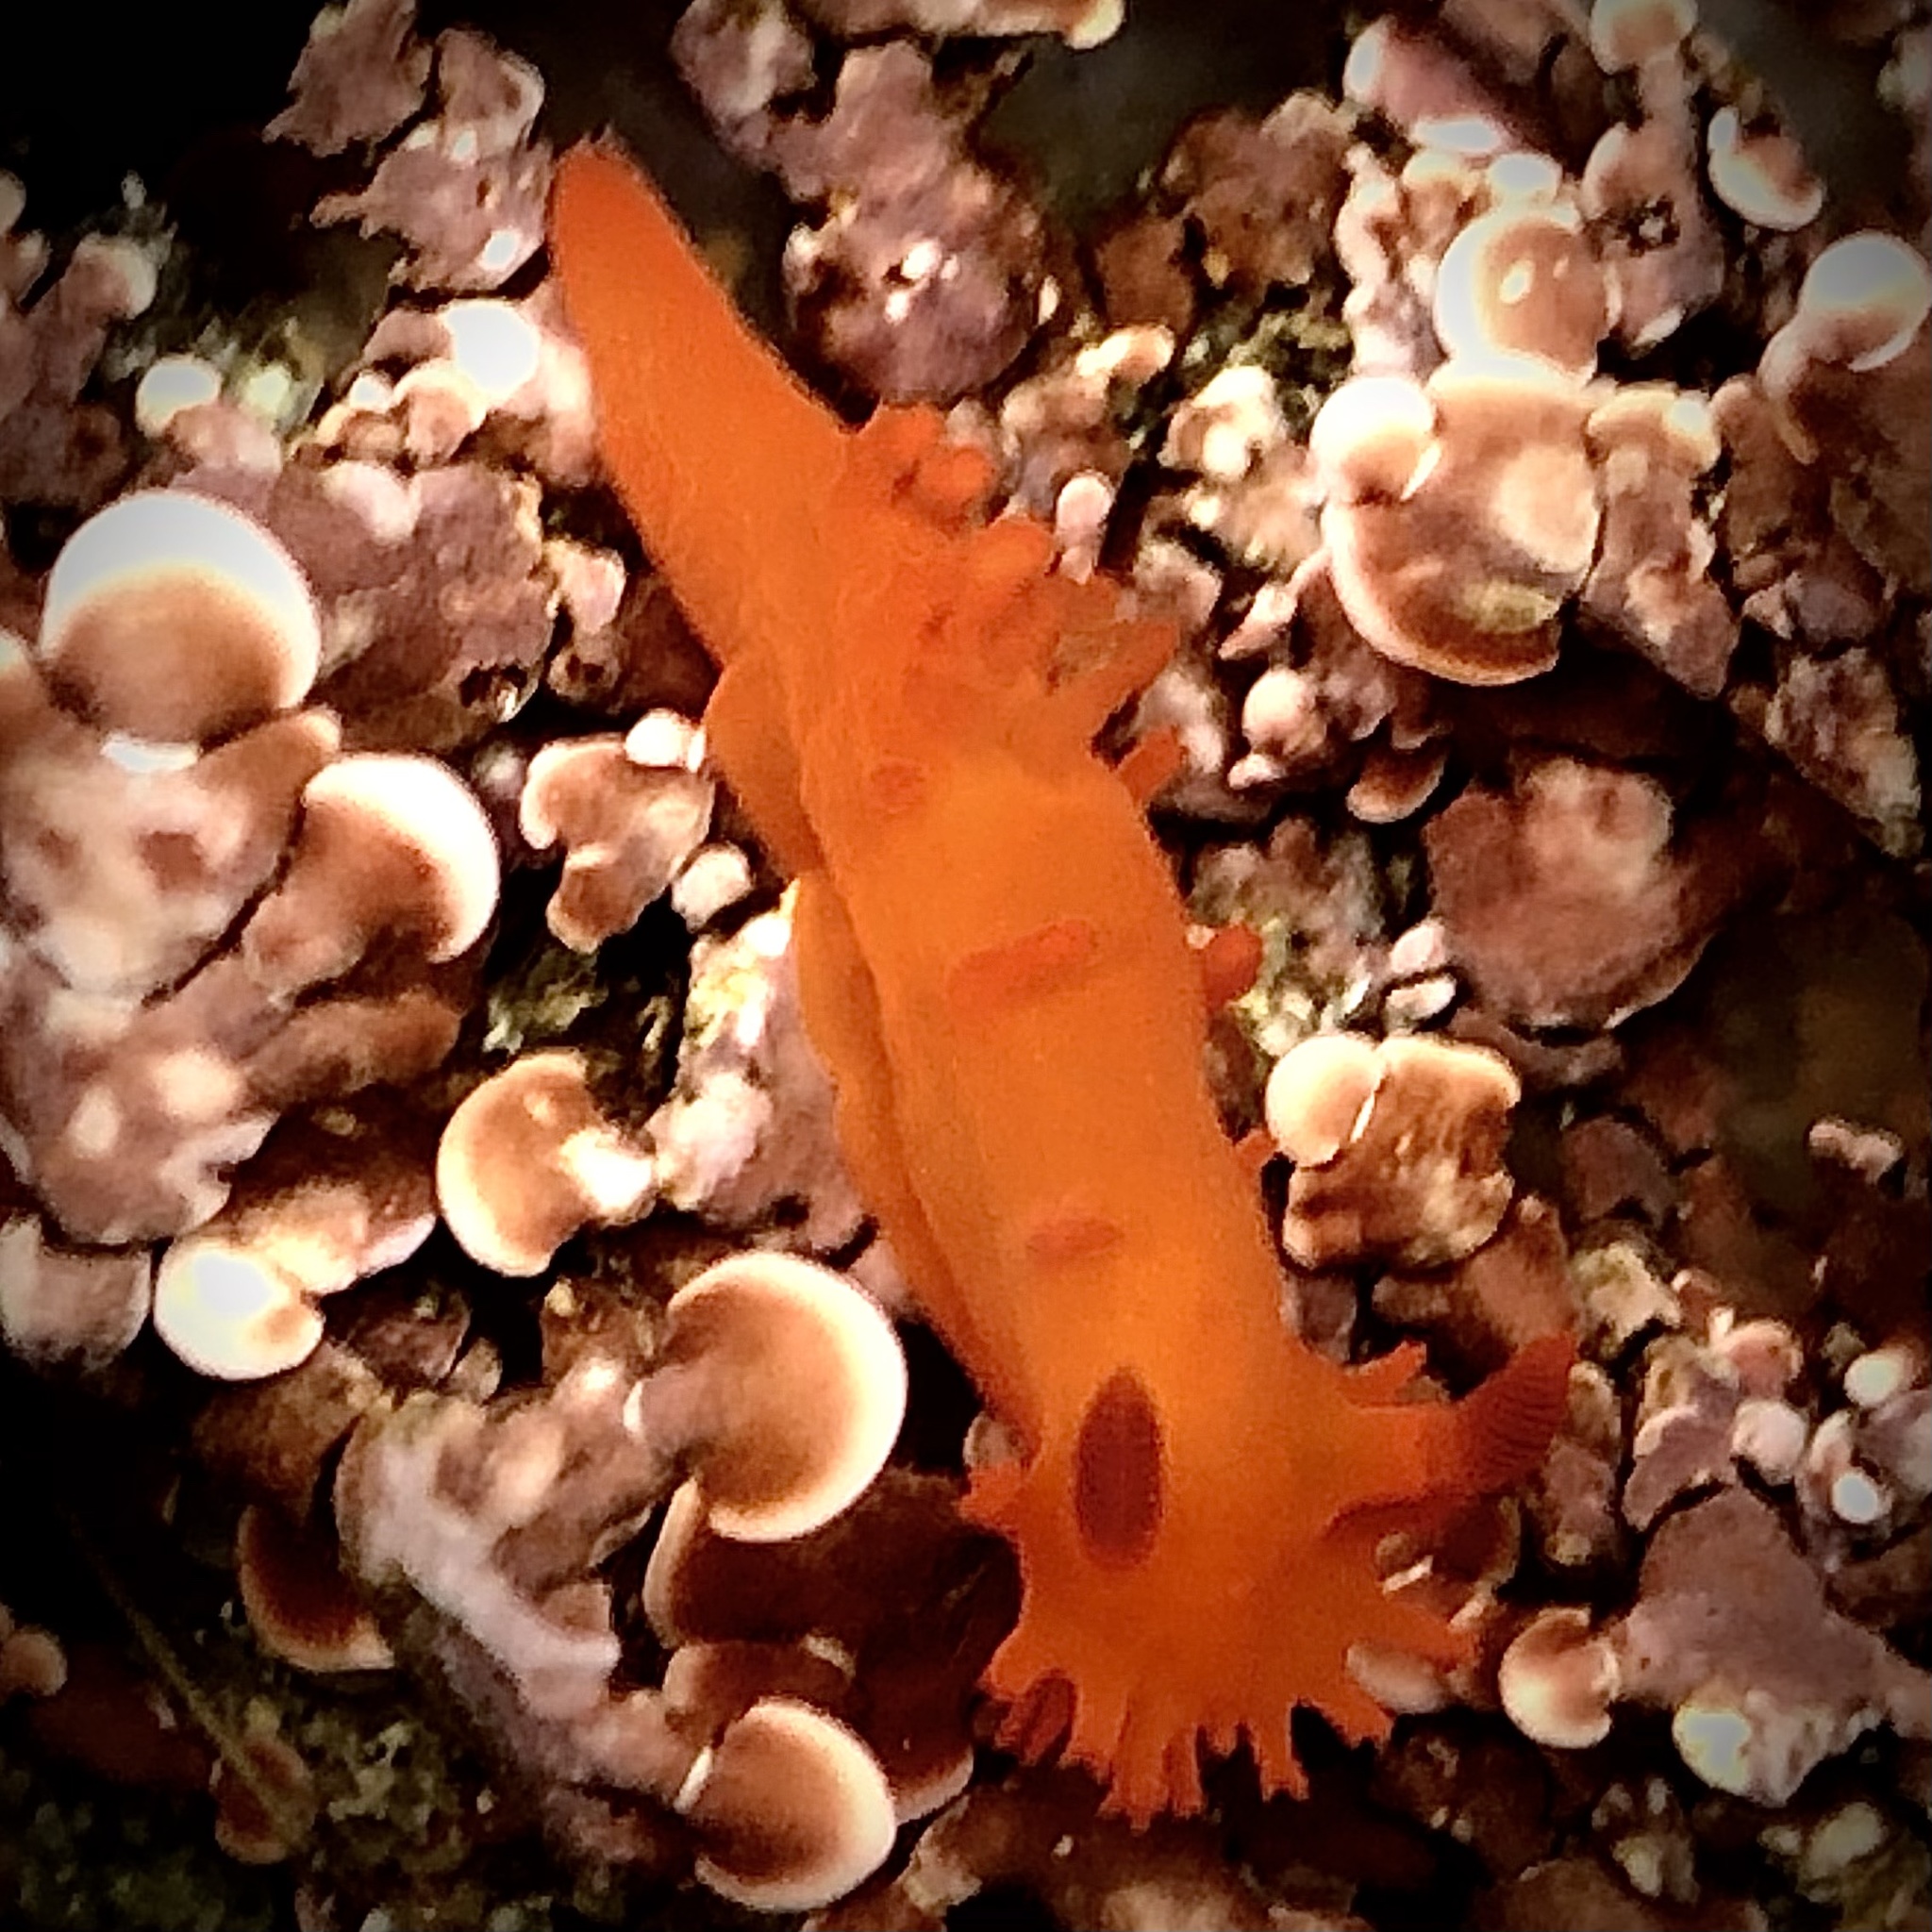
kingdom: Animalia
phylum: Mollusca
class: Gastropoda
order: Nudibranchia
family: Polyceridae
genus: Triopha
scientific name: Triopha maculata
